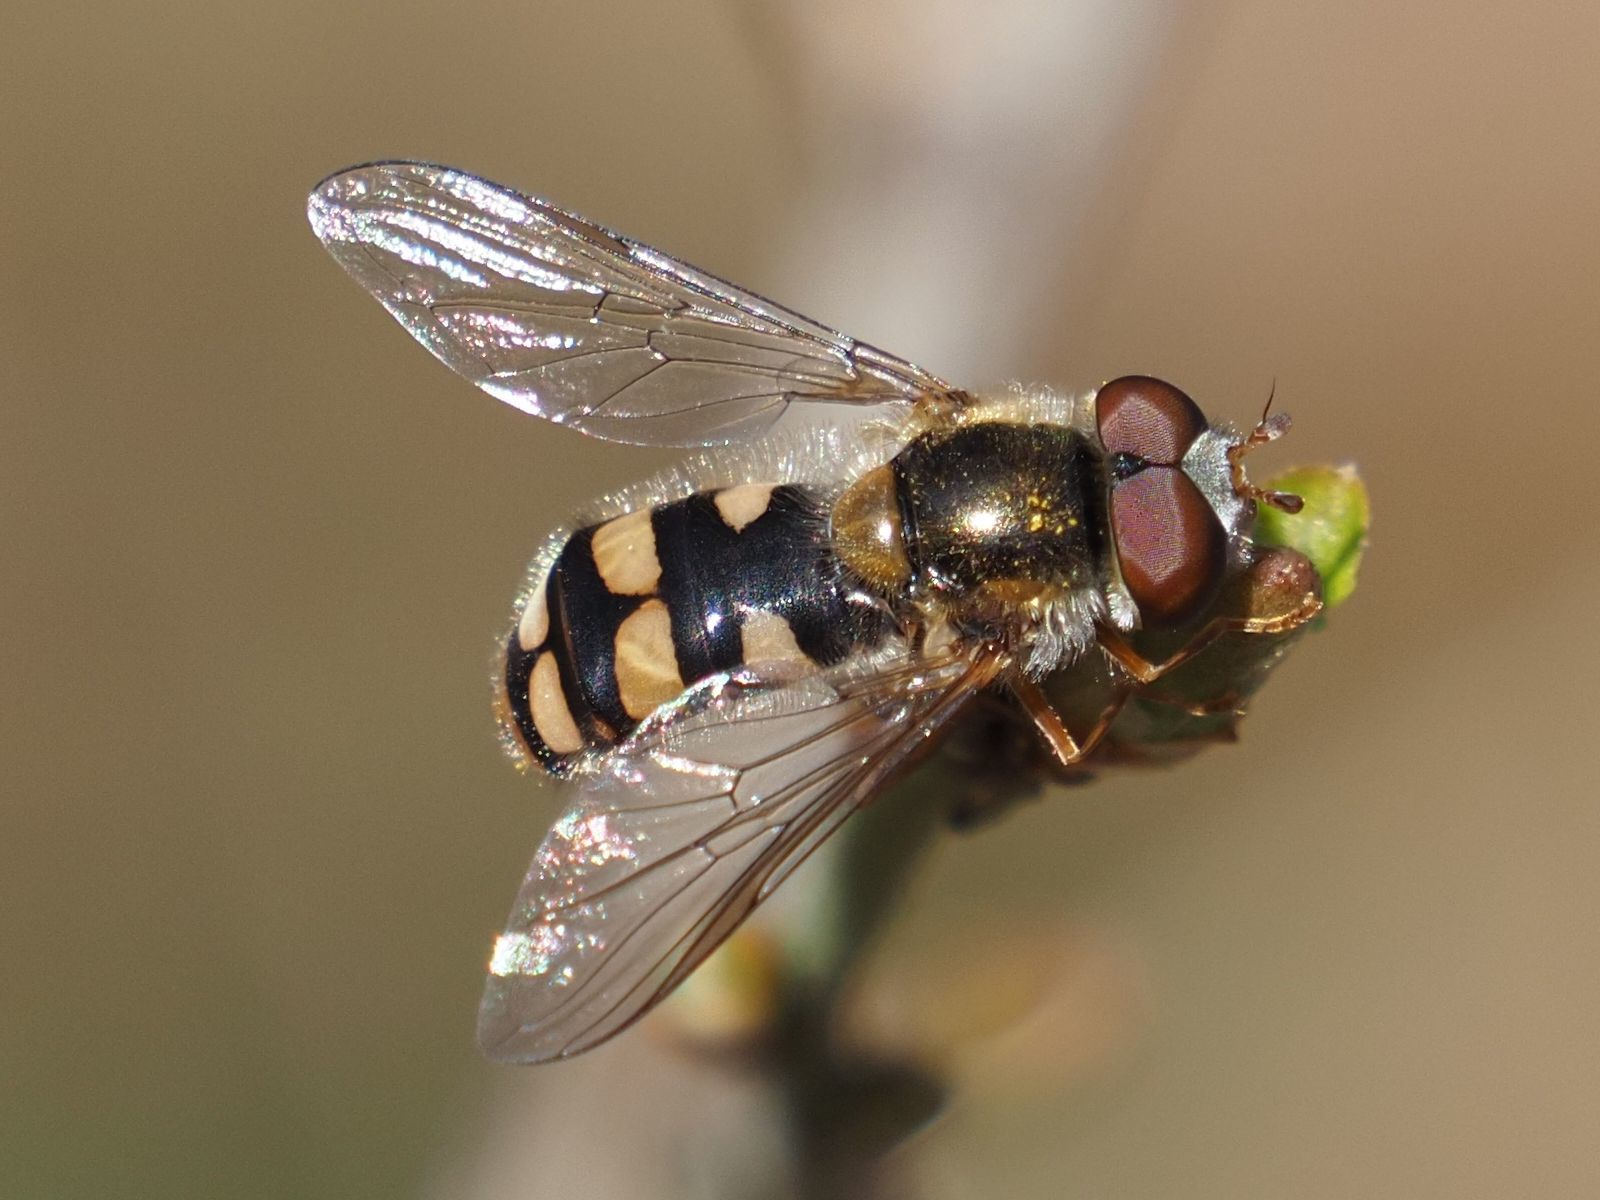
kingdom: Animalia
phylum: Arthropoda
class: Insecta
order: Diptera
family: Syrphidae
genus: Epistrophella
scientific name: Epistrophella euchromus
